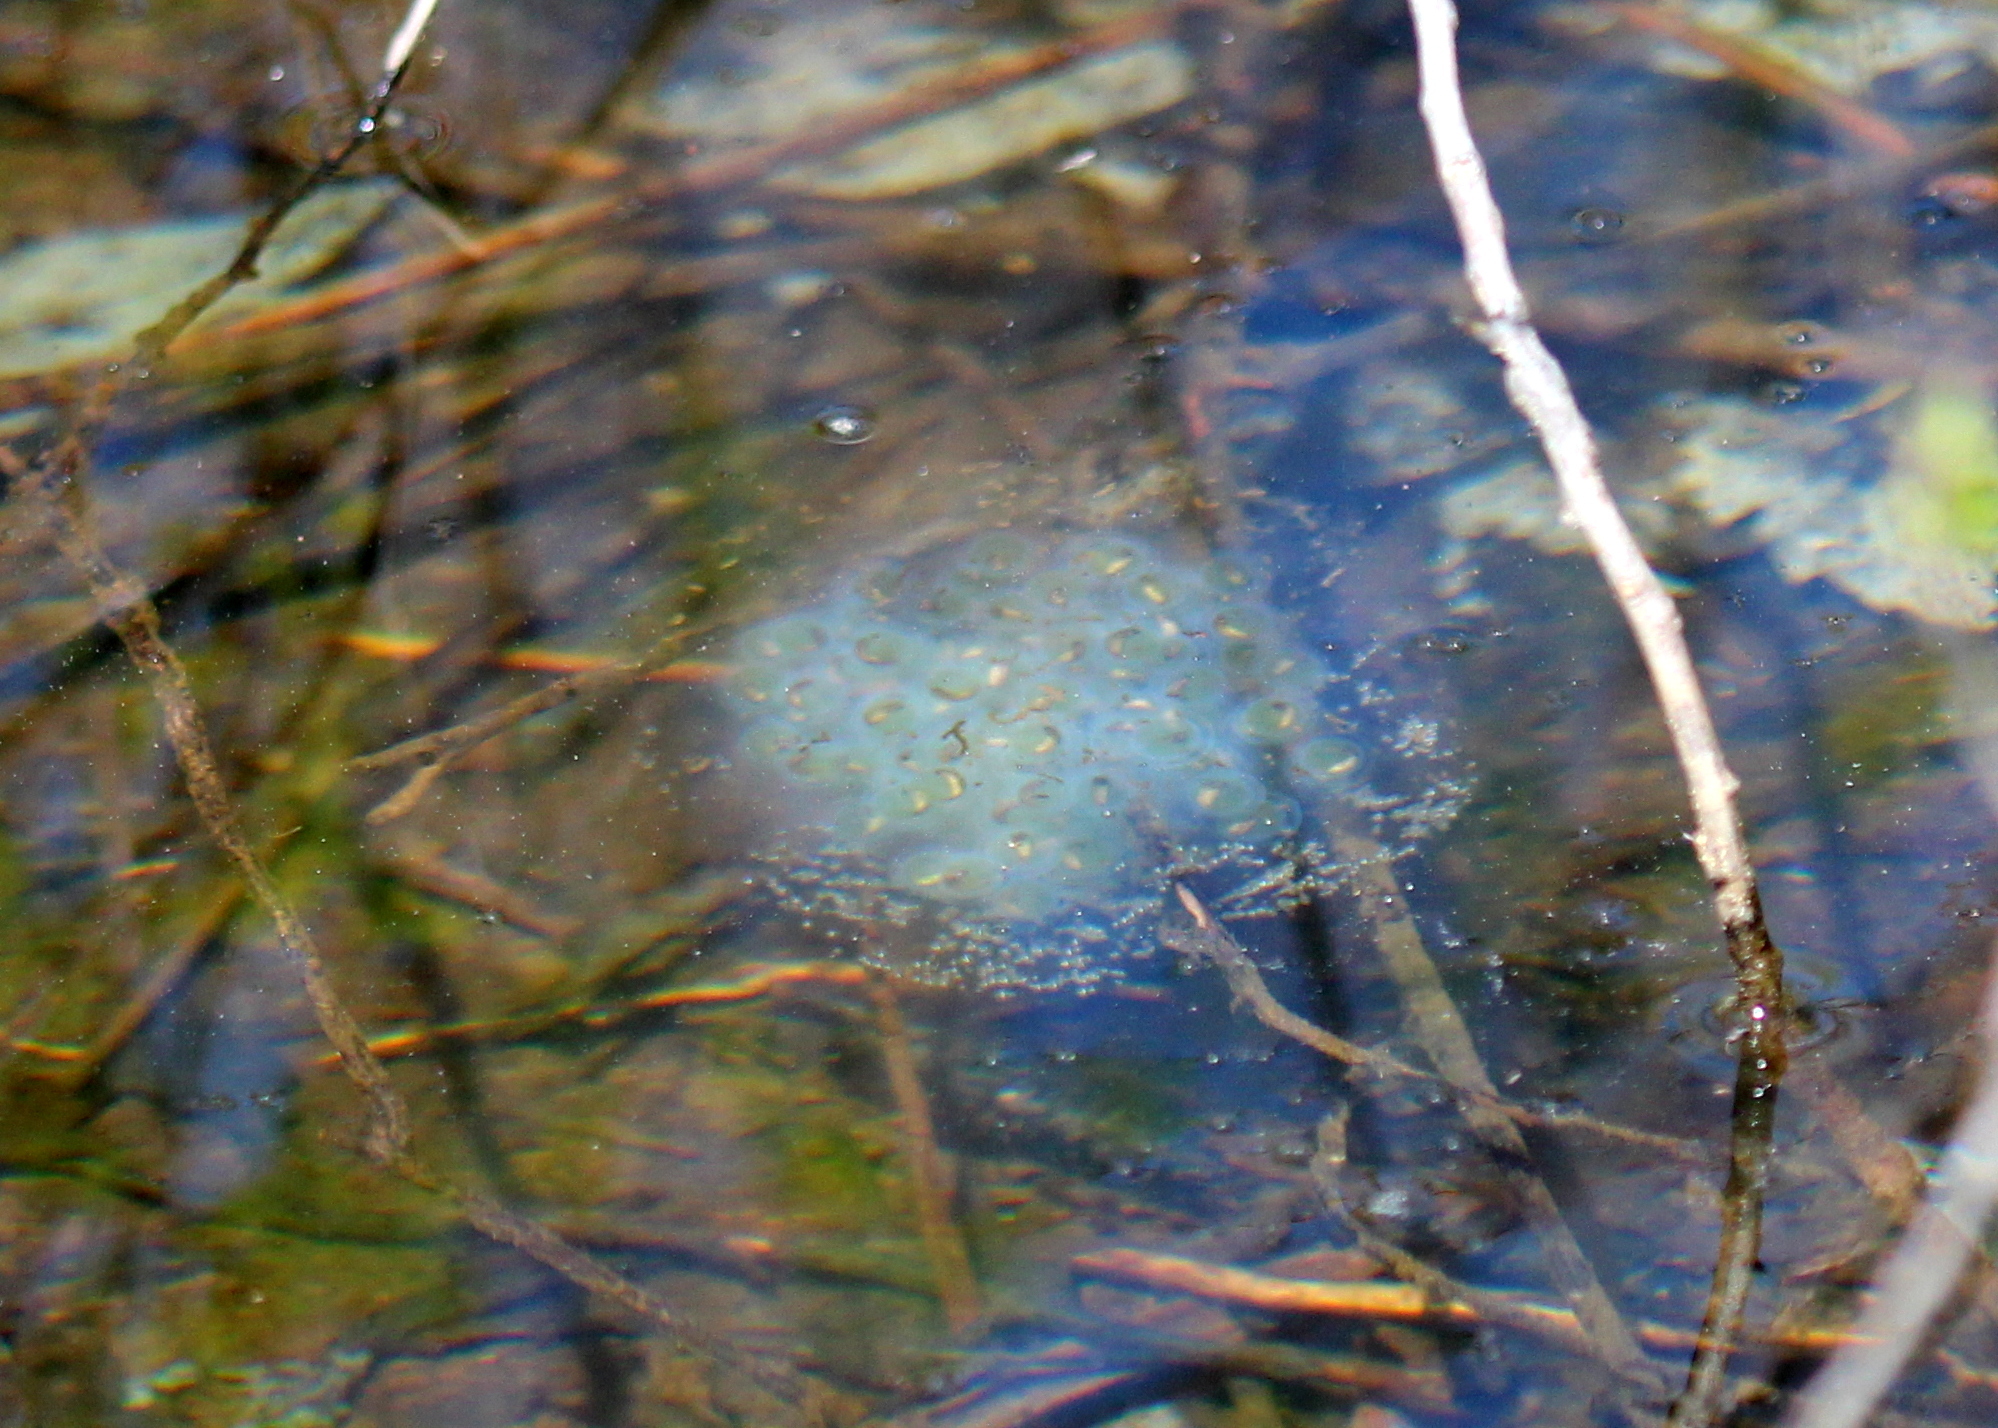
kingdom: Animalia
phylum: Chordata
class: Amphibia
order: Caudata
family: Ambystomatidae
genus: Ambystoma
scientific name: Ambystoma maculatum
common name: Spotted salamander
